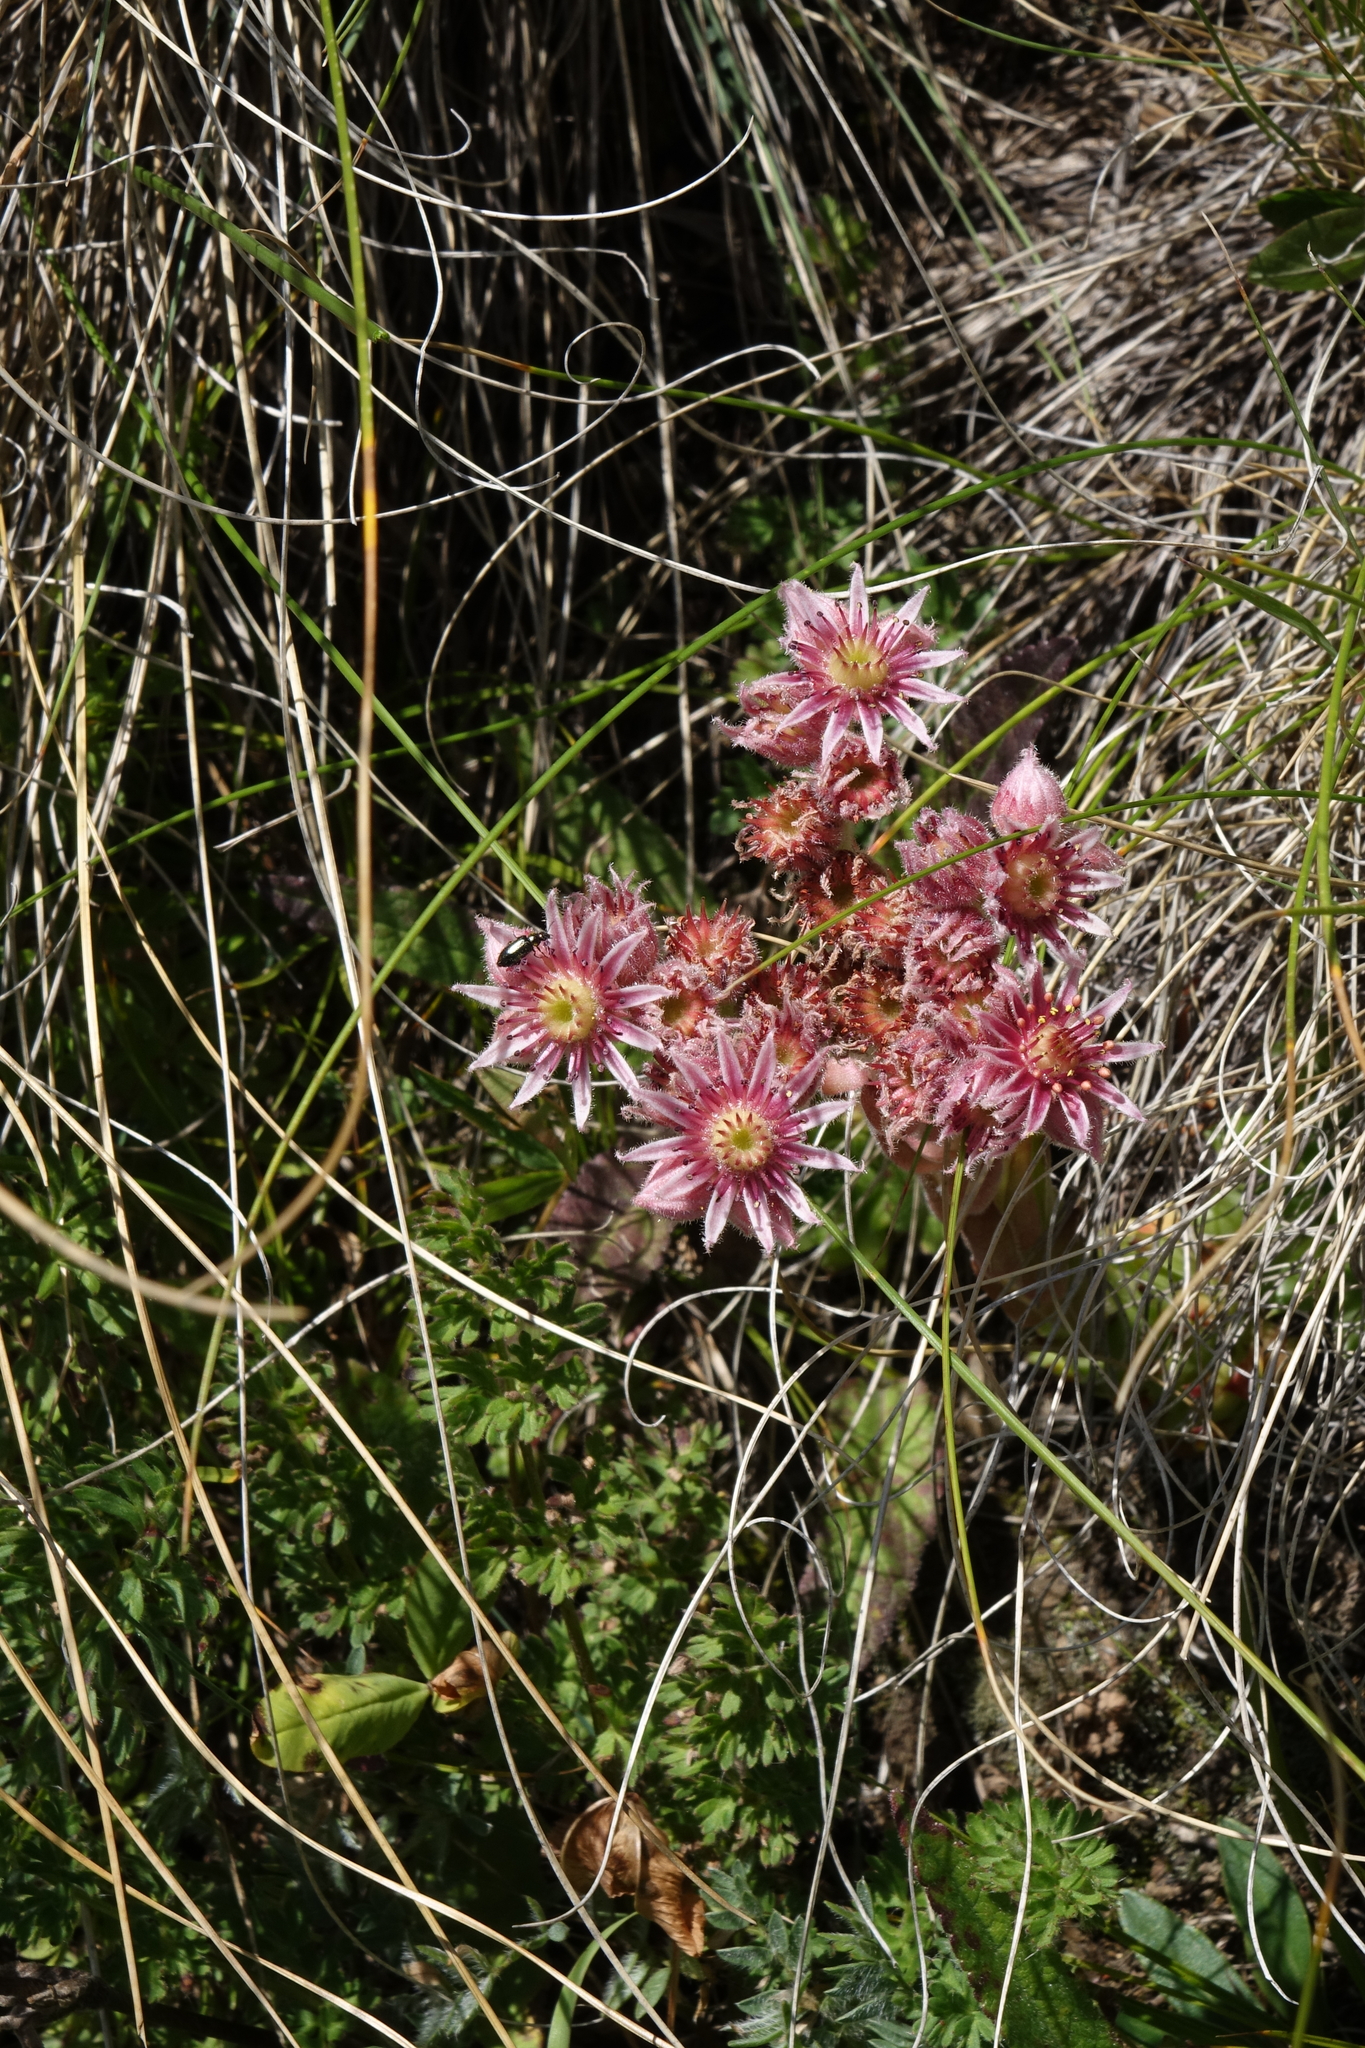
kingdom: Plantae
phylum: Tracheophyta
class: Magnoliopsida
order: Saxifragales
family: Crassulaceae
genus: Sempervivum
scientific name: Sempervivum caucasicum
